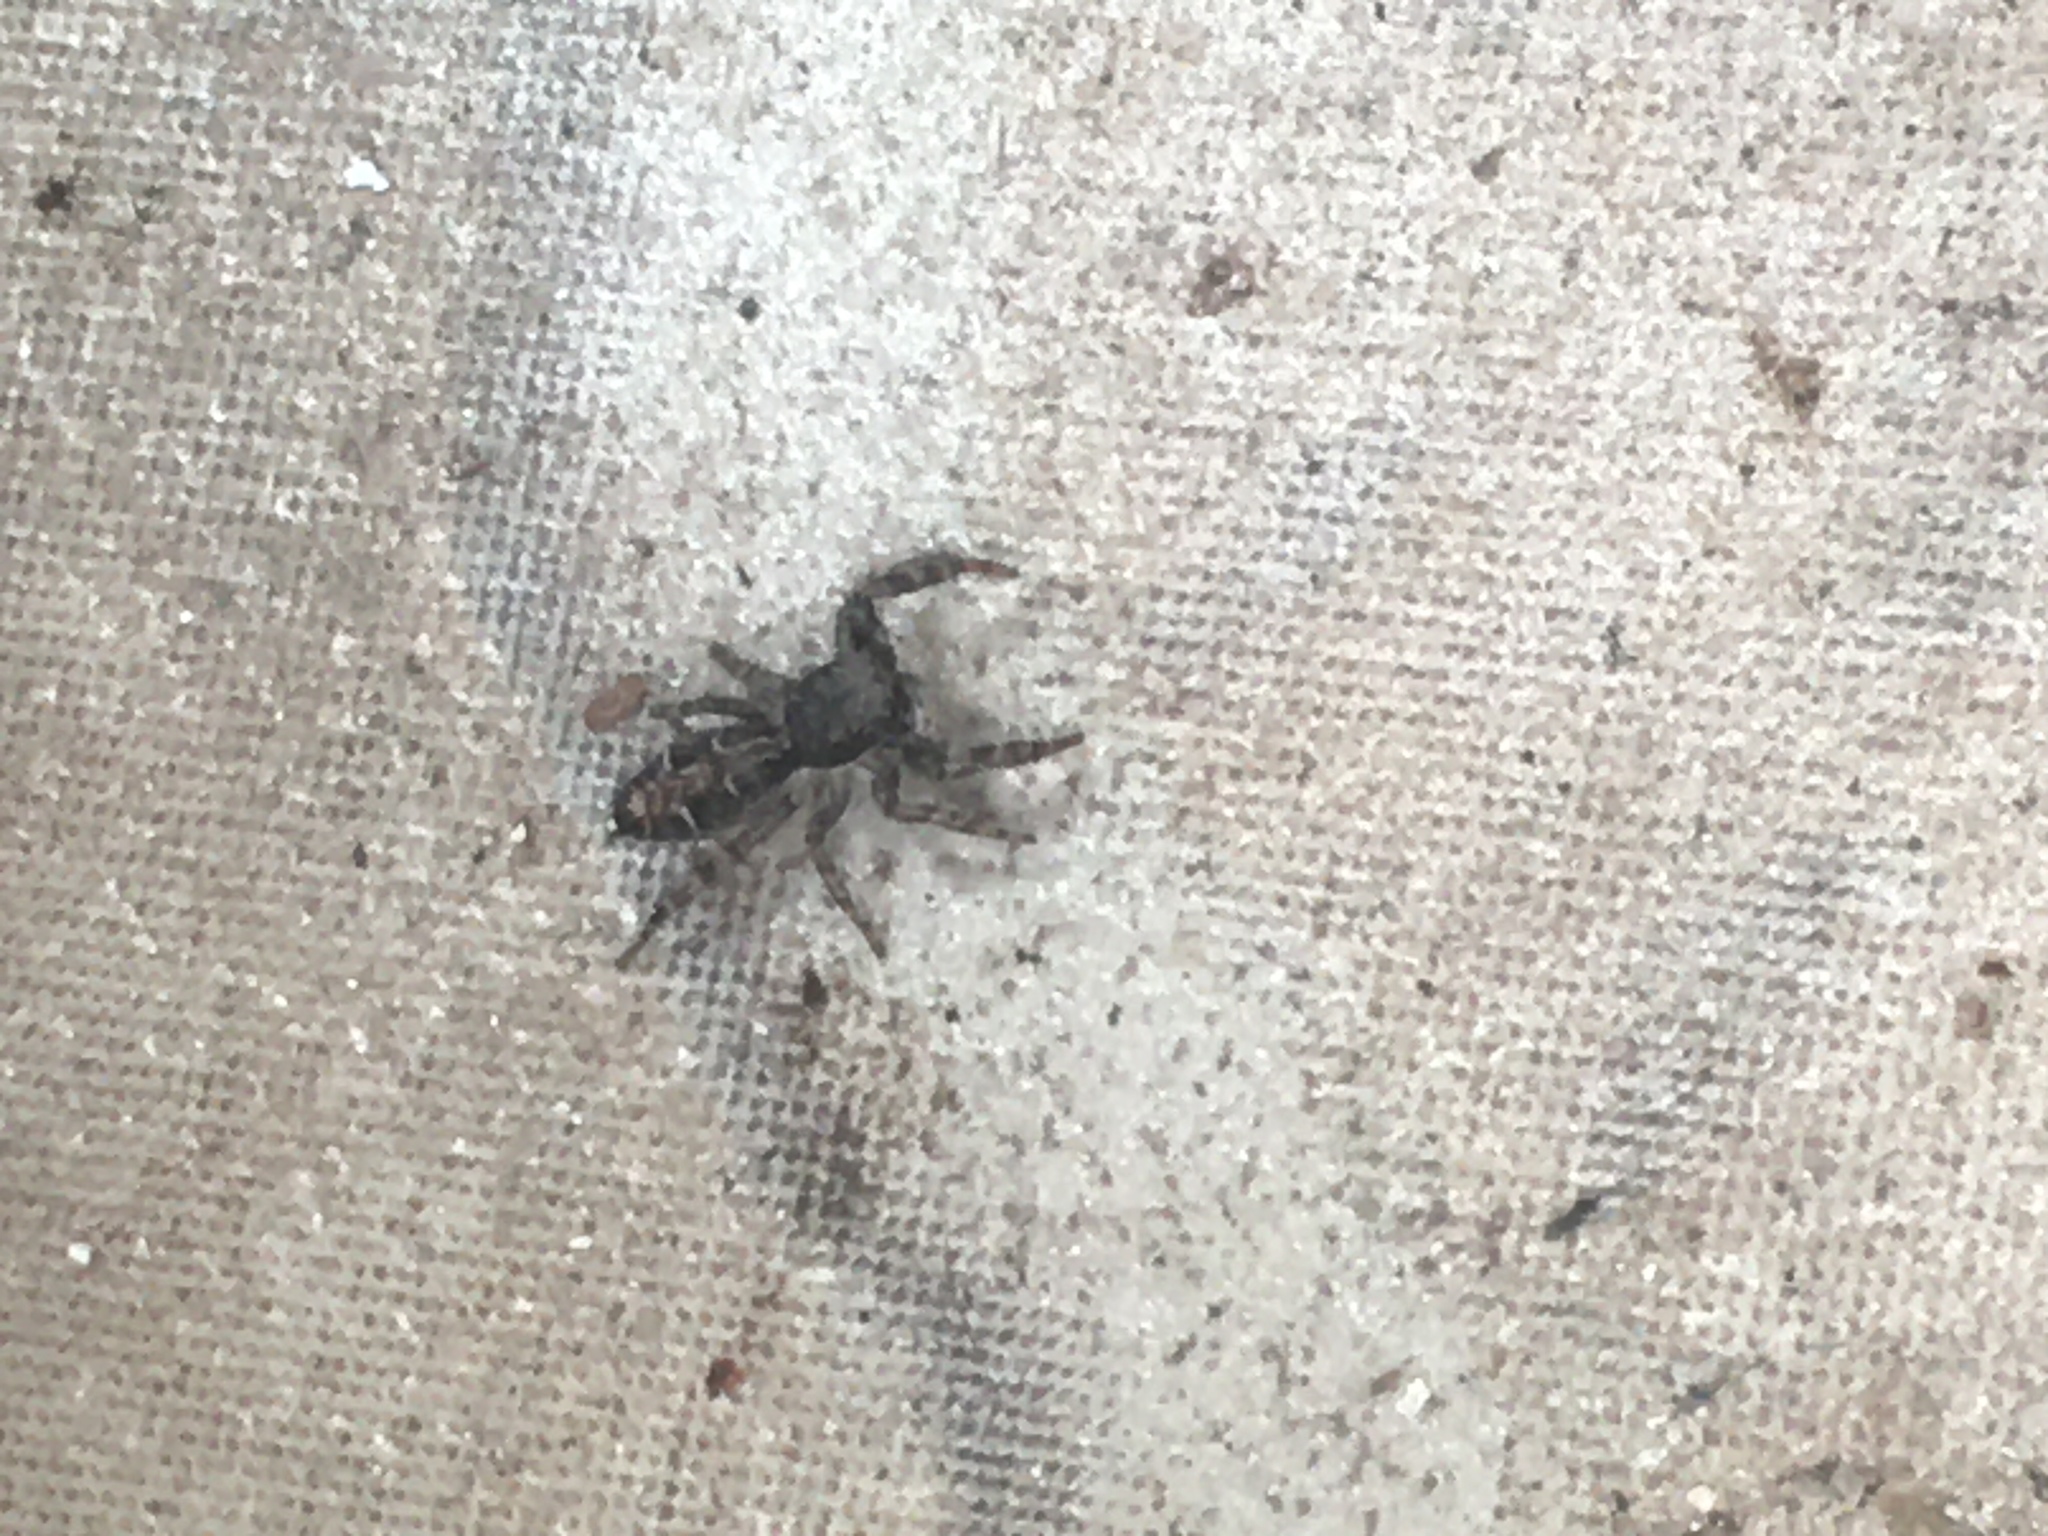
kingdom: Animalia
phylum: Arthropoda
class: Arachnida
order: Araneae
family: Salticidae
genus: Breda
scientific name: Breda
